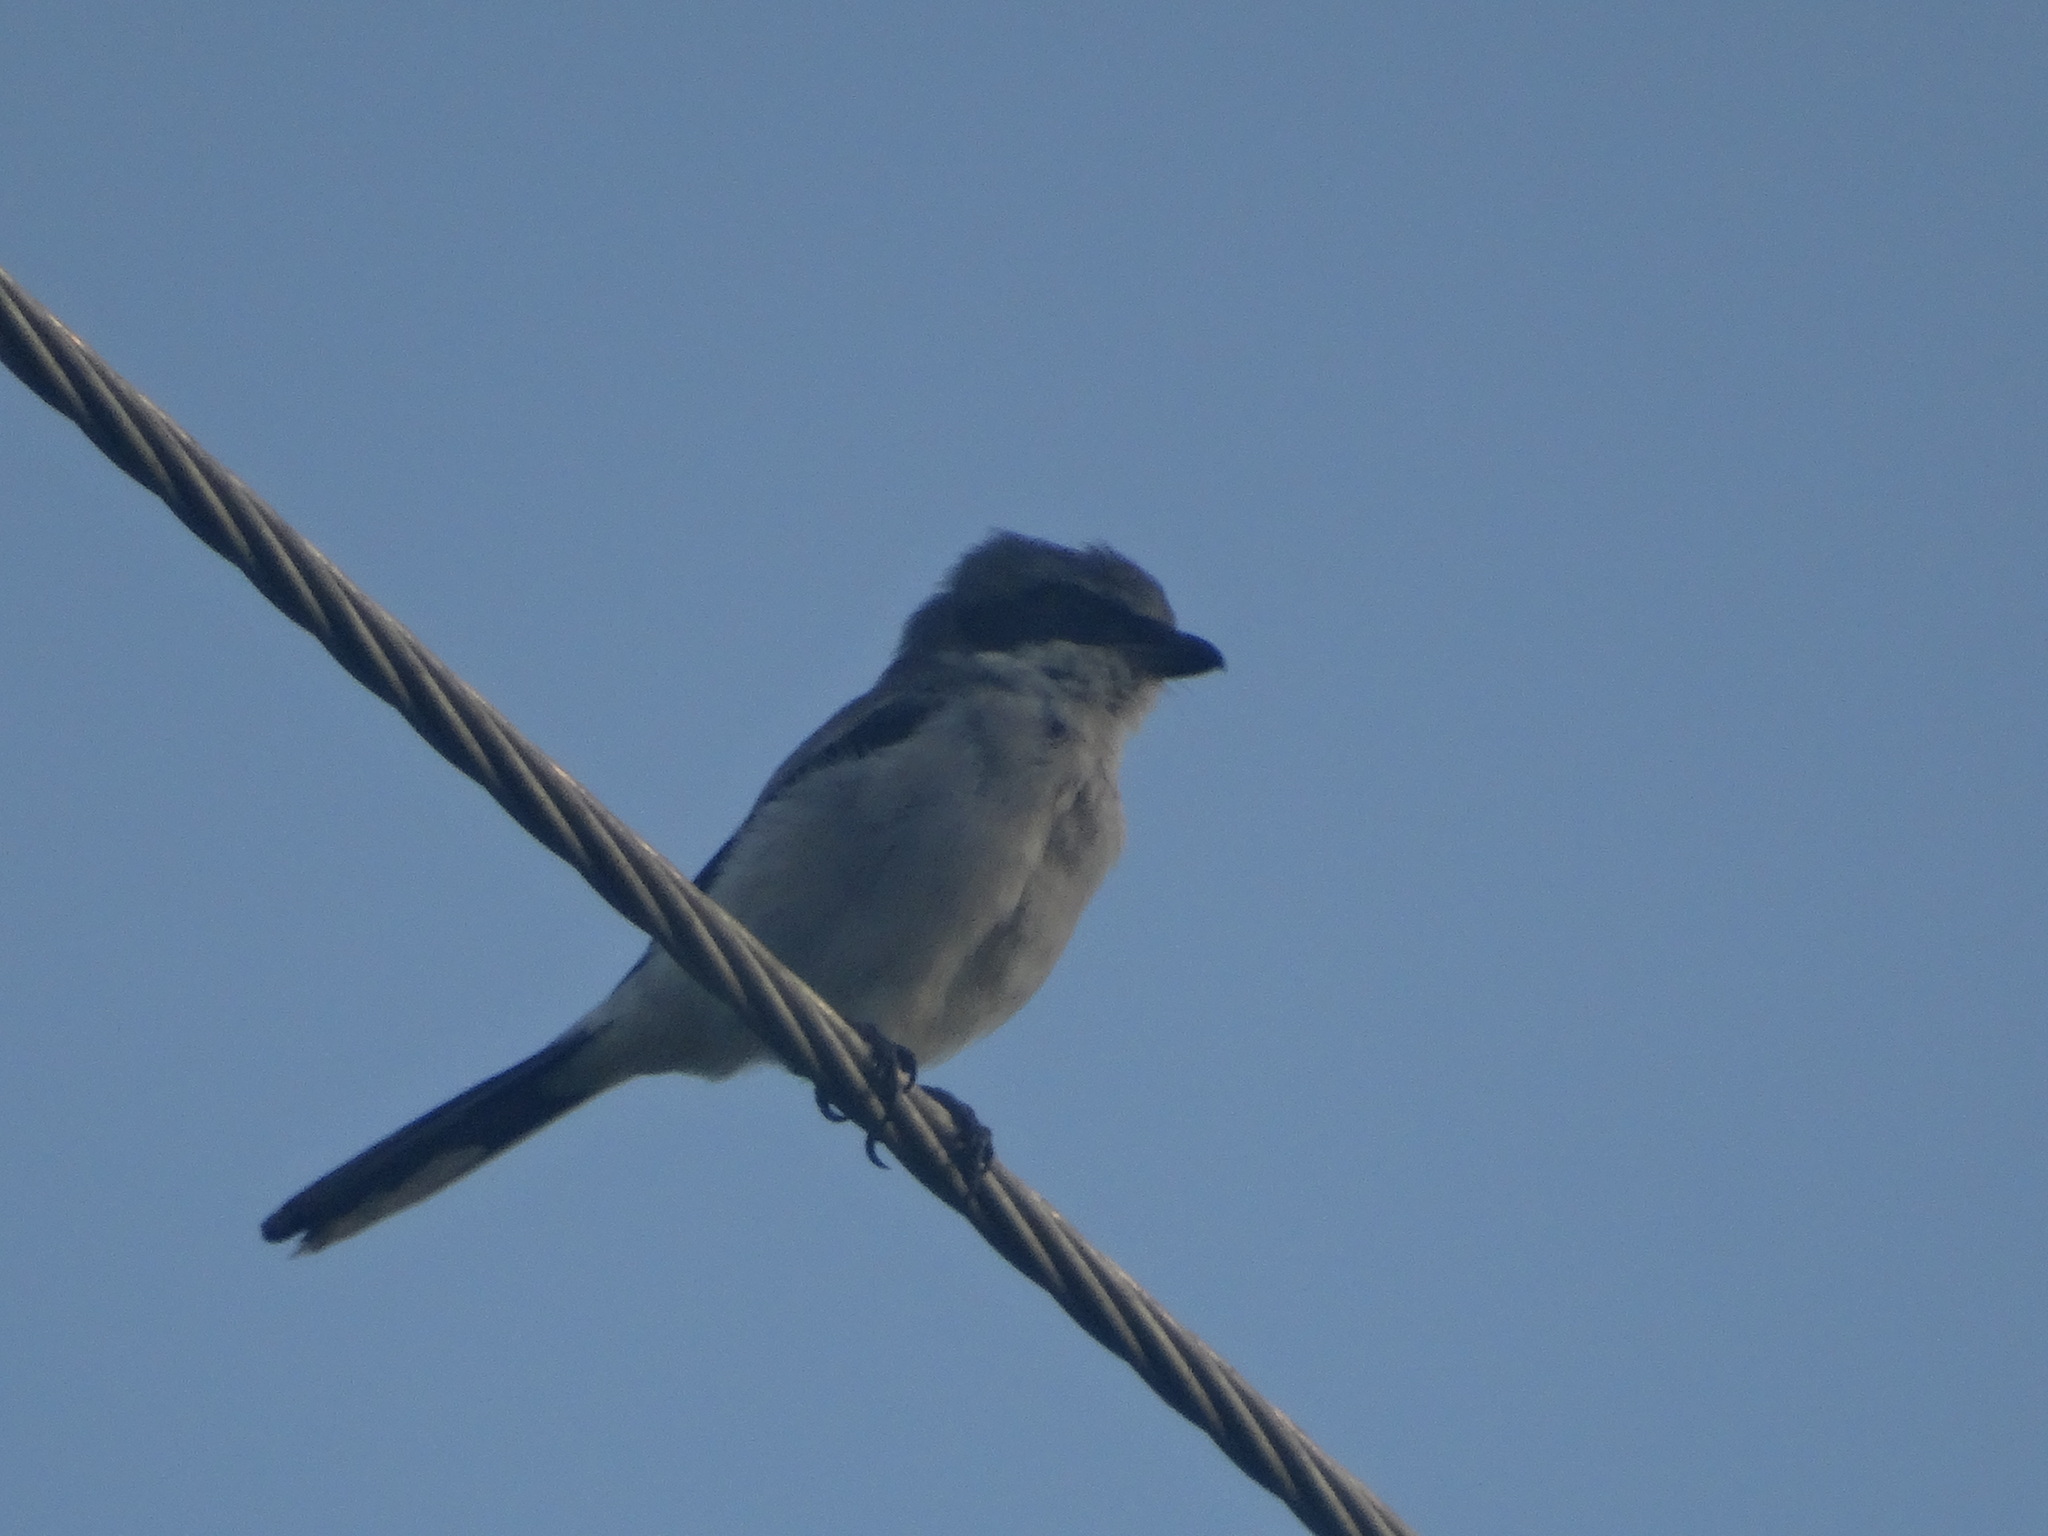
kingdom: Animalia
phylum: Chordata
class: Aves
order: Passeriformes
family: Laniidae
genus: Lanius
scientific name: Lanius ludovicianus
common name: Loggerhead shrike
